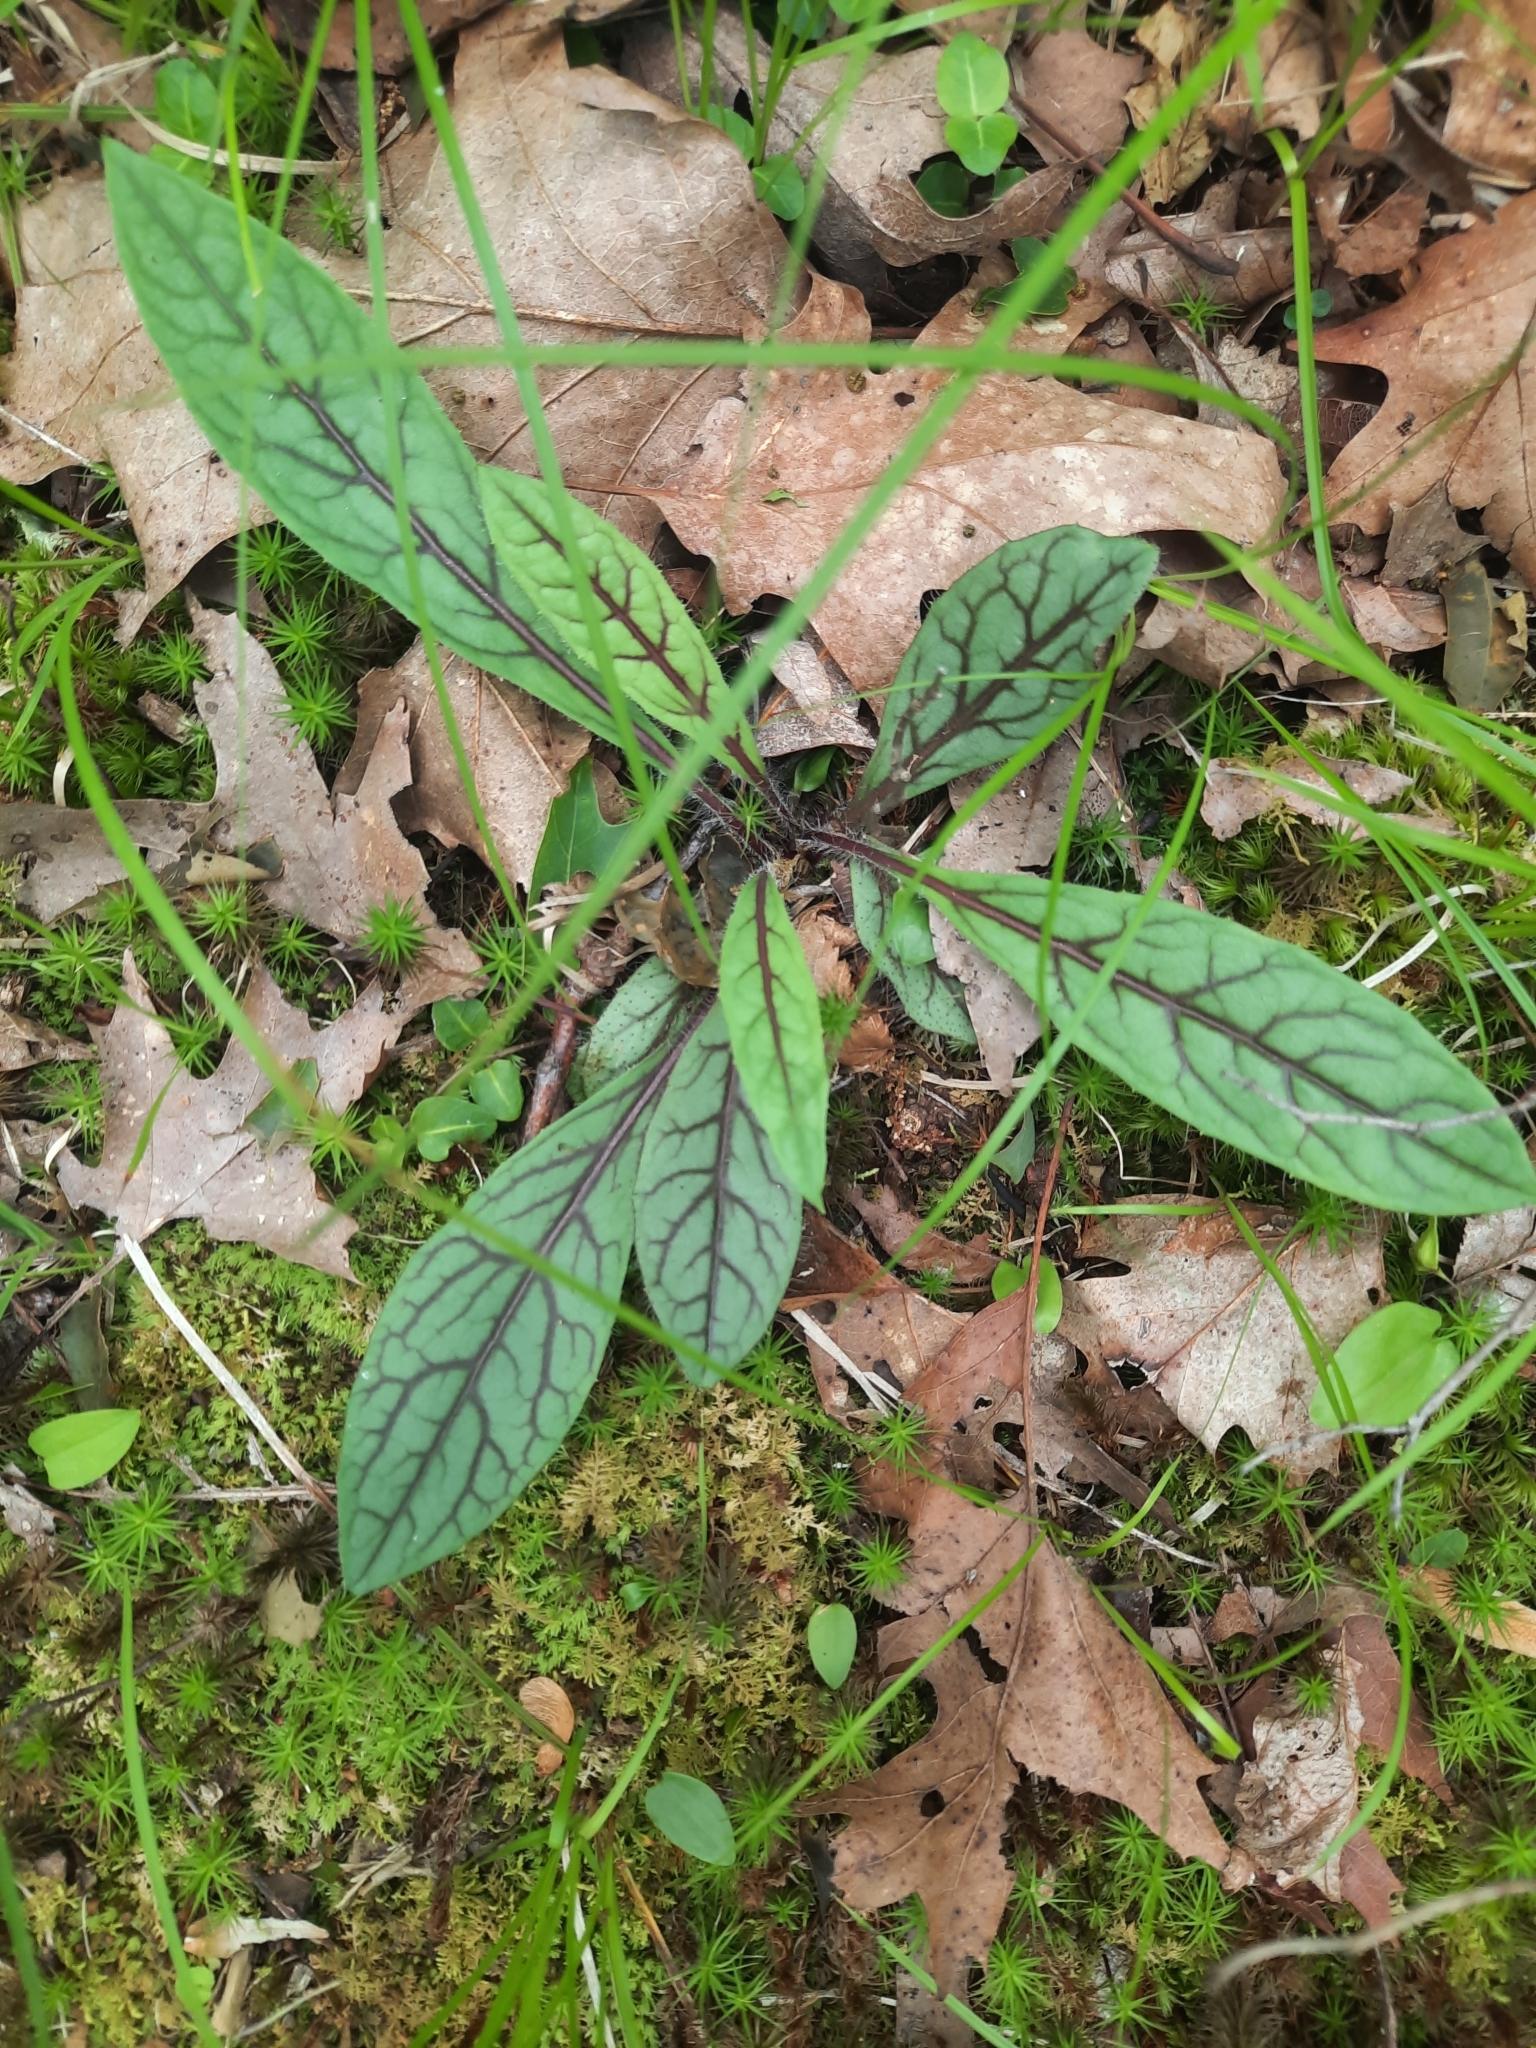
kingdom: Plantae
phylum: Tracheophyta
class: Magnoliopsida
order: Asterales
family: Asteraceae
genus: Hieracium
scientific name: Hieracium venosum
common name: Rattlesnake hawkweed
